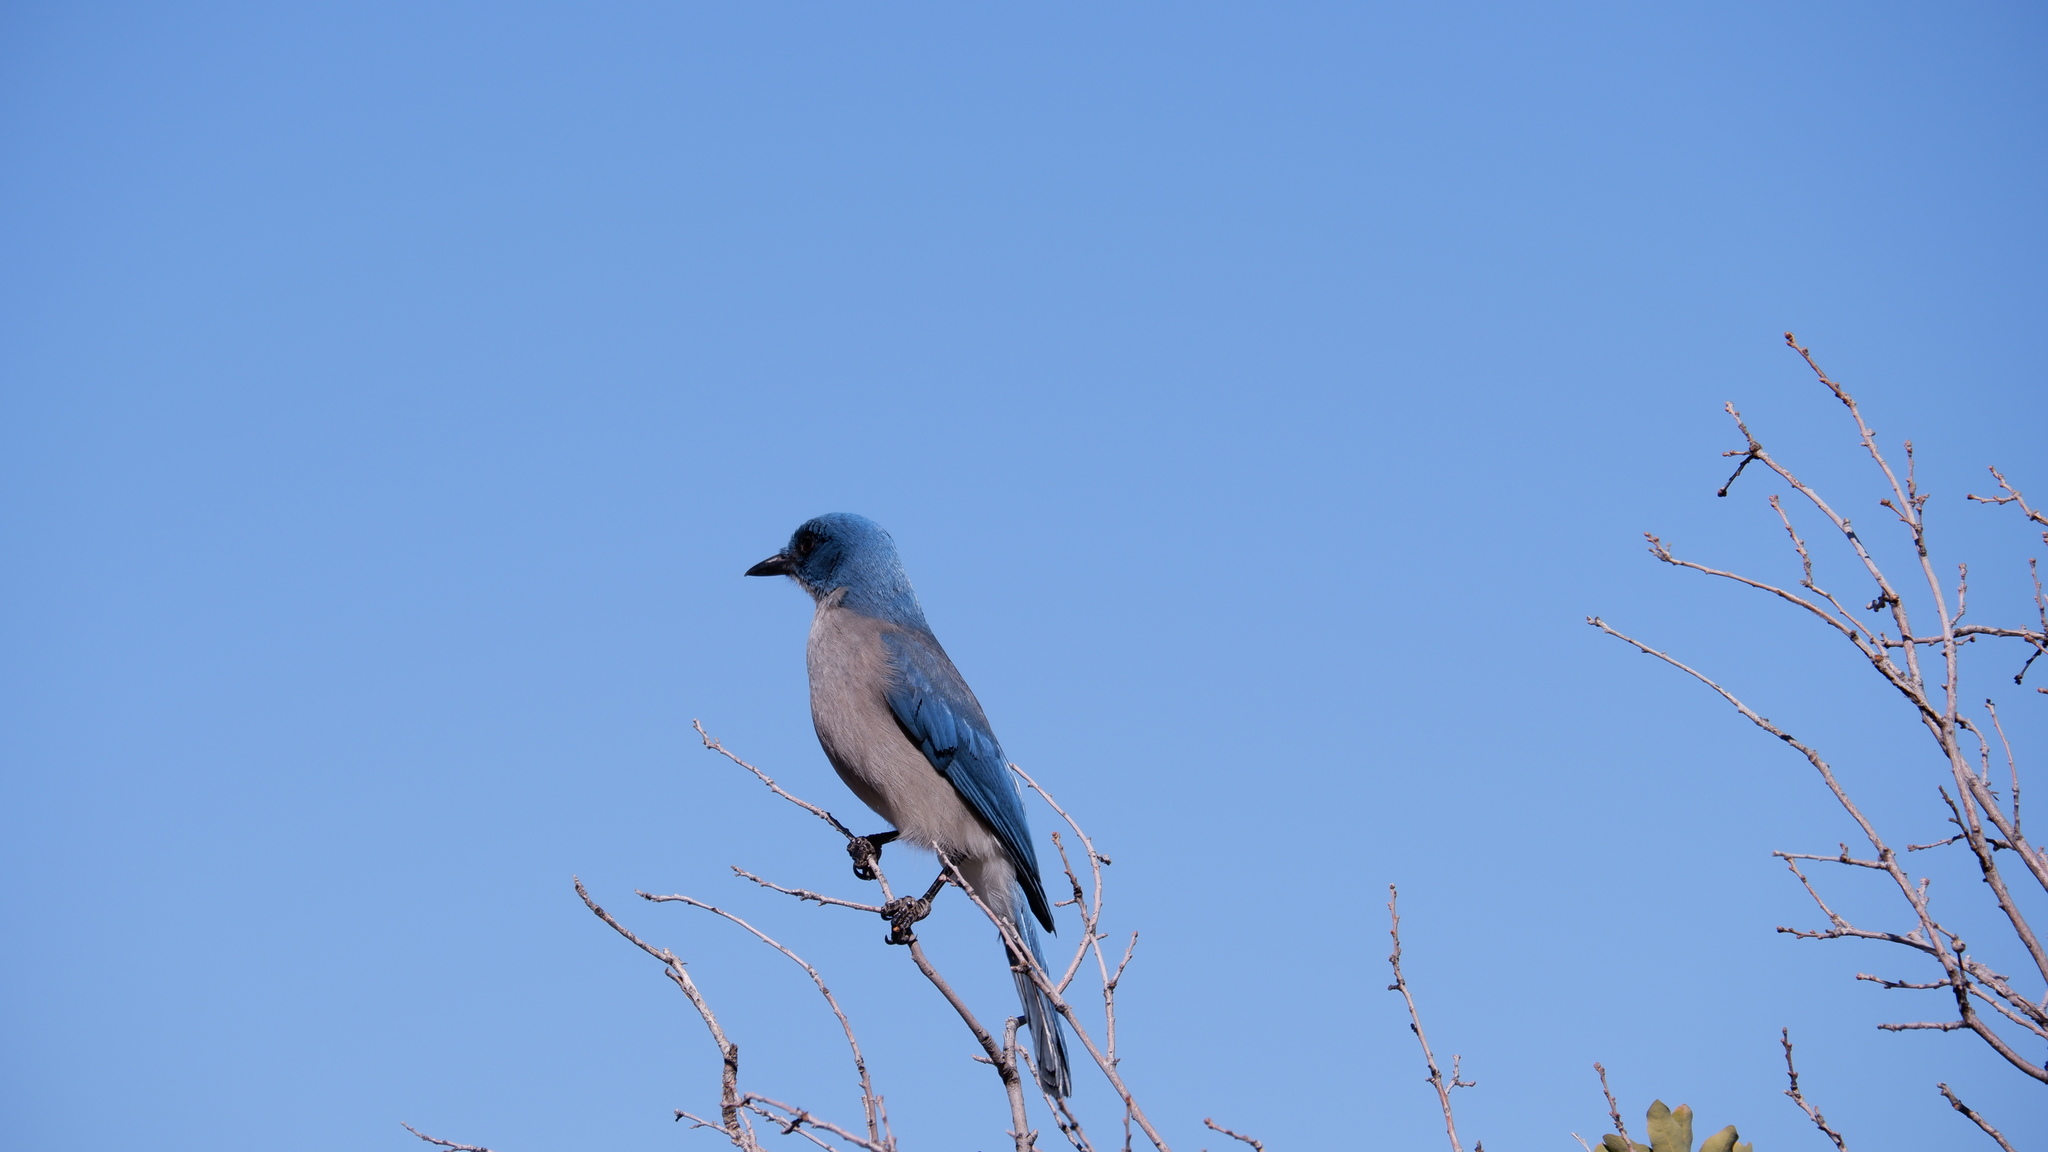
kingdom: Animalia
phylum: Chordata
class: Aves
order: Passeriformes
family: Corvidae
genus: Aphelocoma
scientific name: Aphelocoma wollweberi
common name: Mexican jay
